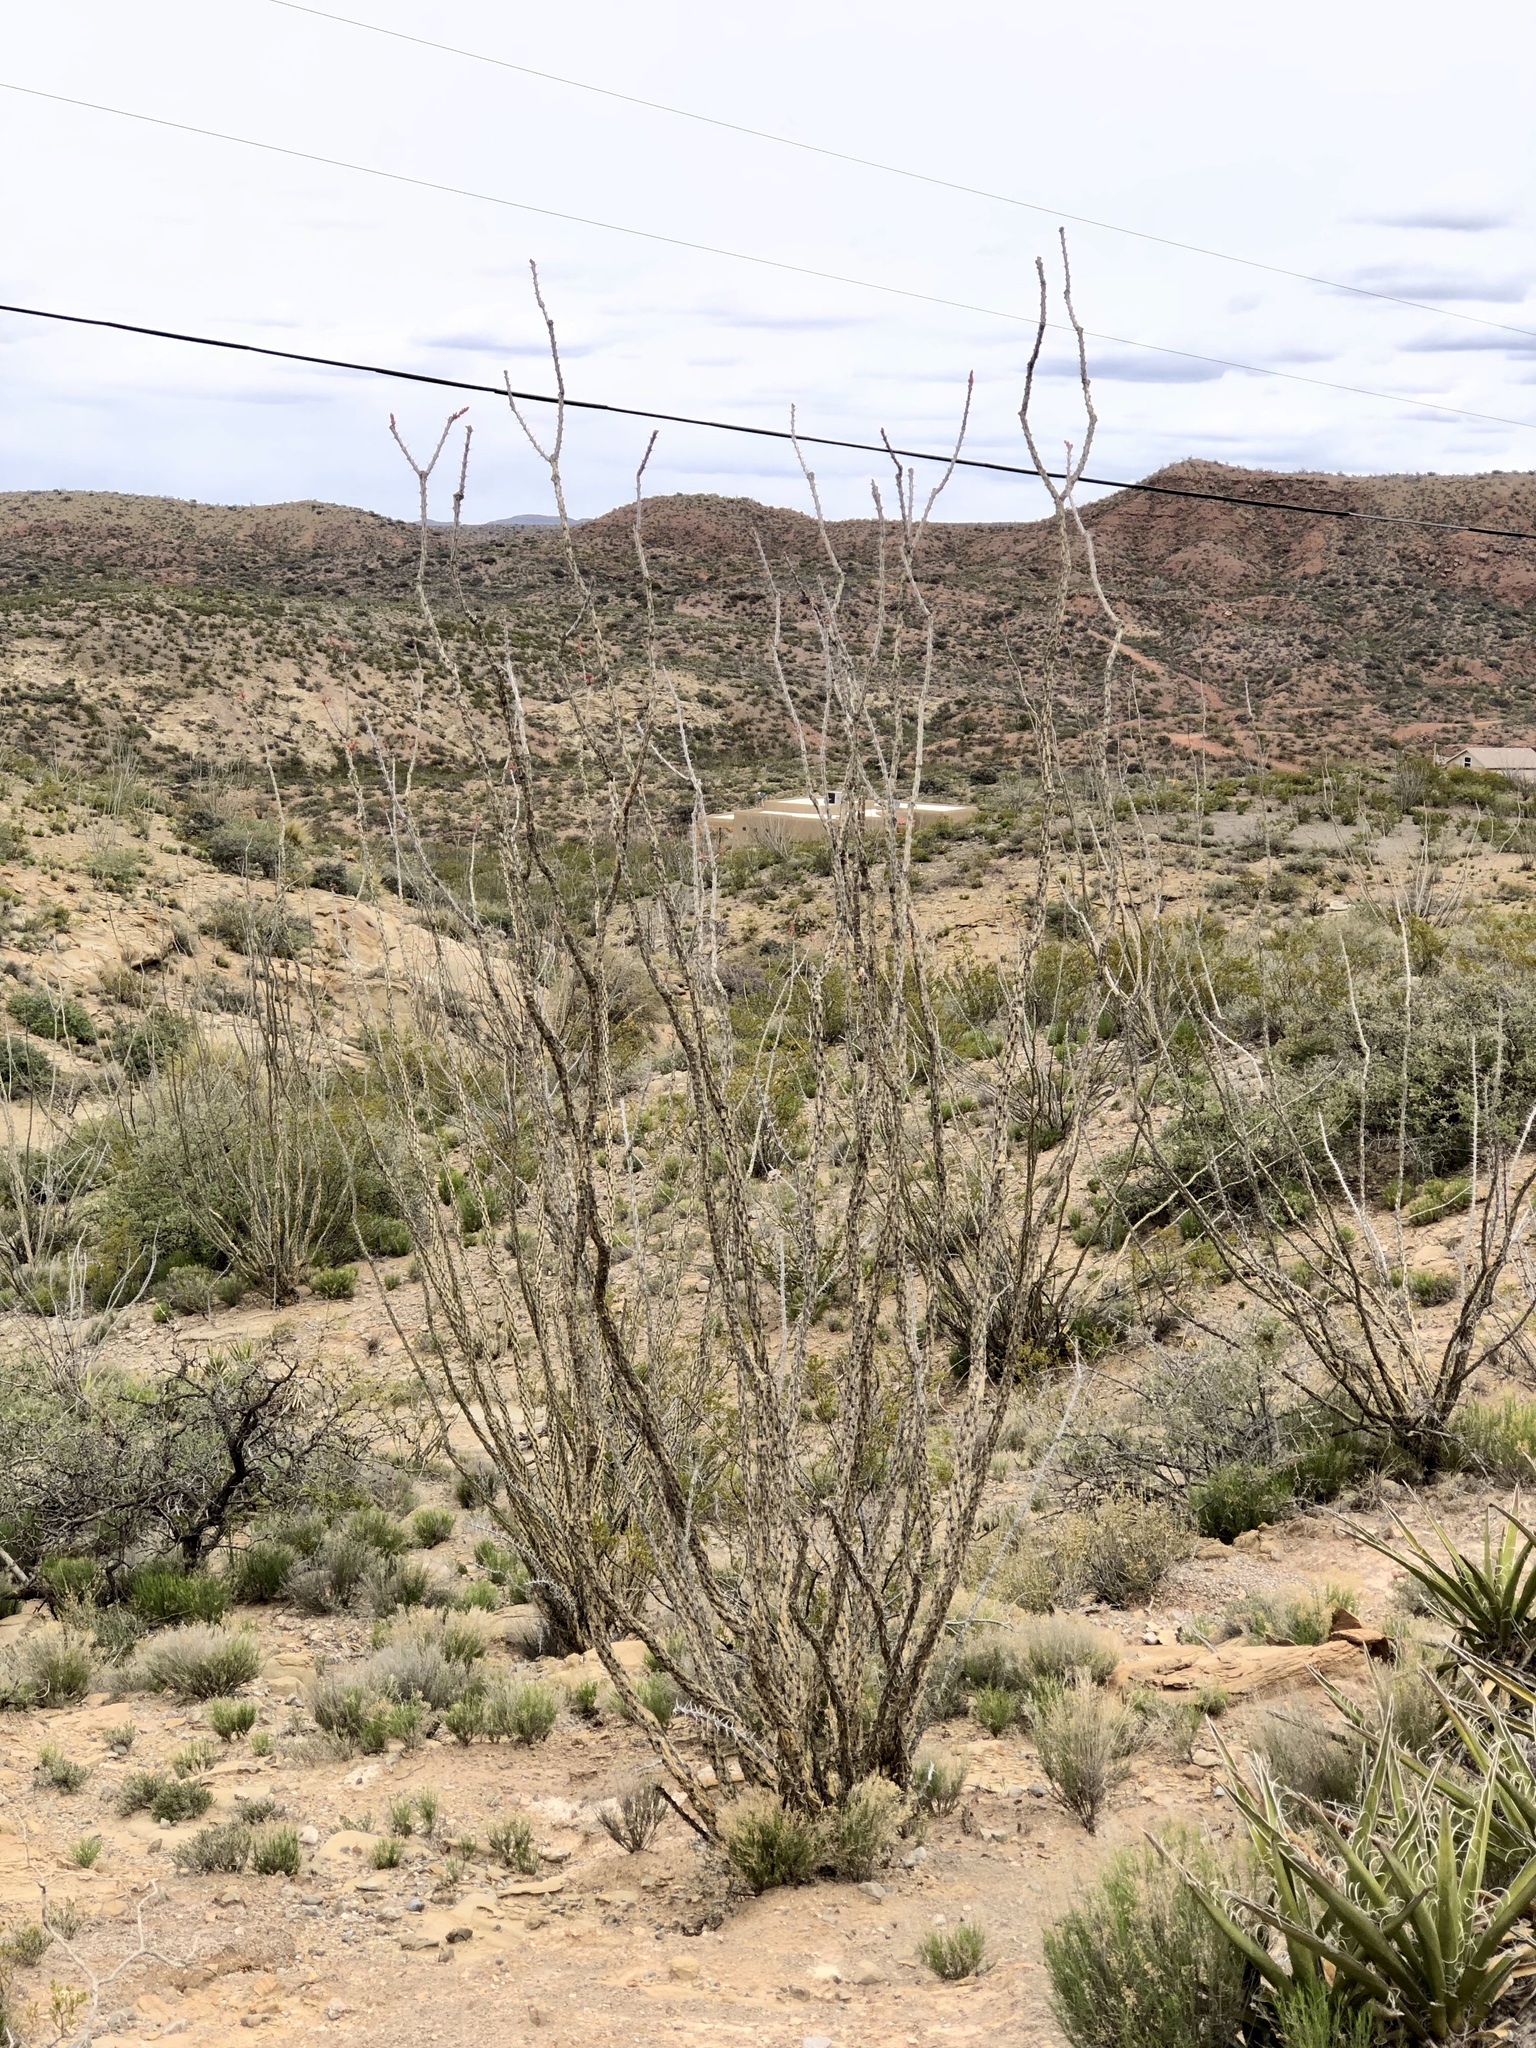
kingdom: Plantae
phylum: Tracheophyta
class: Magnoliopsida
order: Ericales
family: Fouquieriaceae
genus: Fouquieria
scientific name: Fouquieria splendens
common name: Vine-cactus
